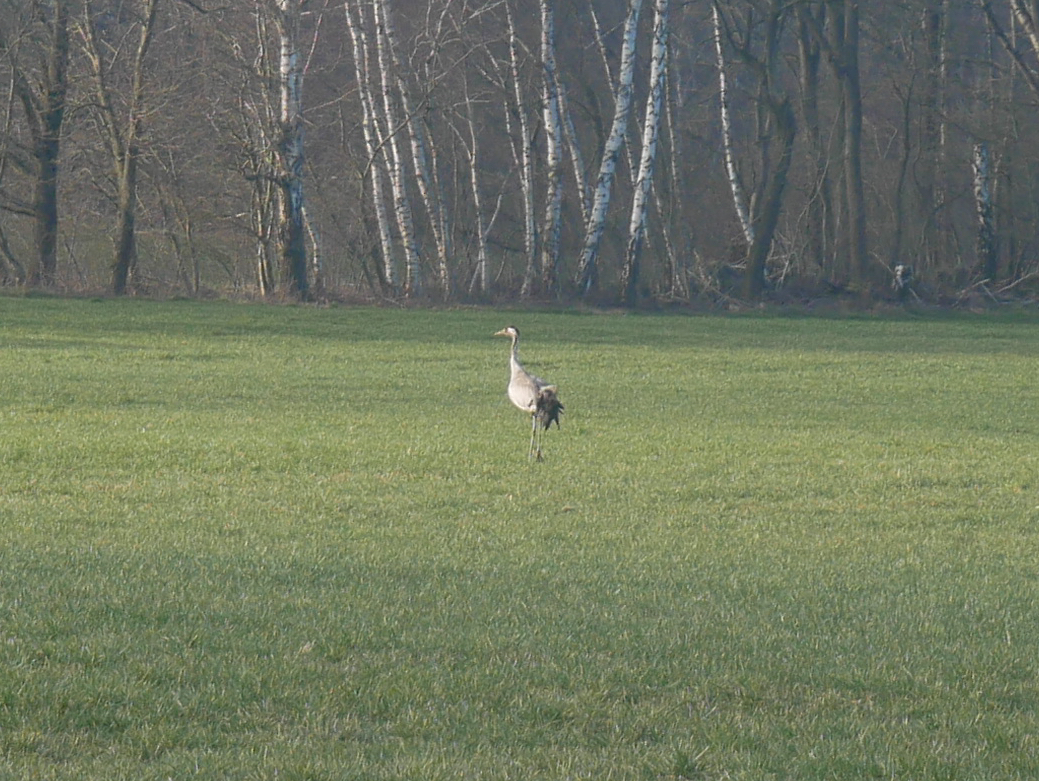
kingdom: Animalia
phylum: Chordata
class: Aves
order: Gruiformes
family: Gruidae
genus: Grus
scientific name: Grus grus
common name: Common crane
